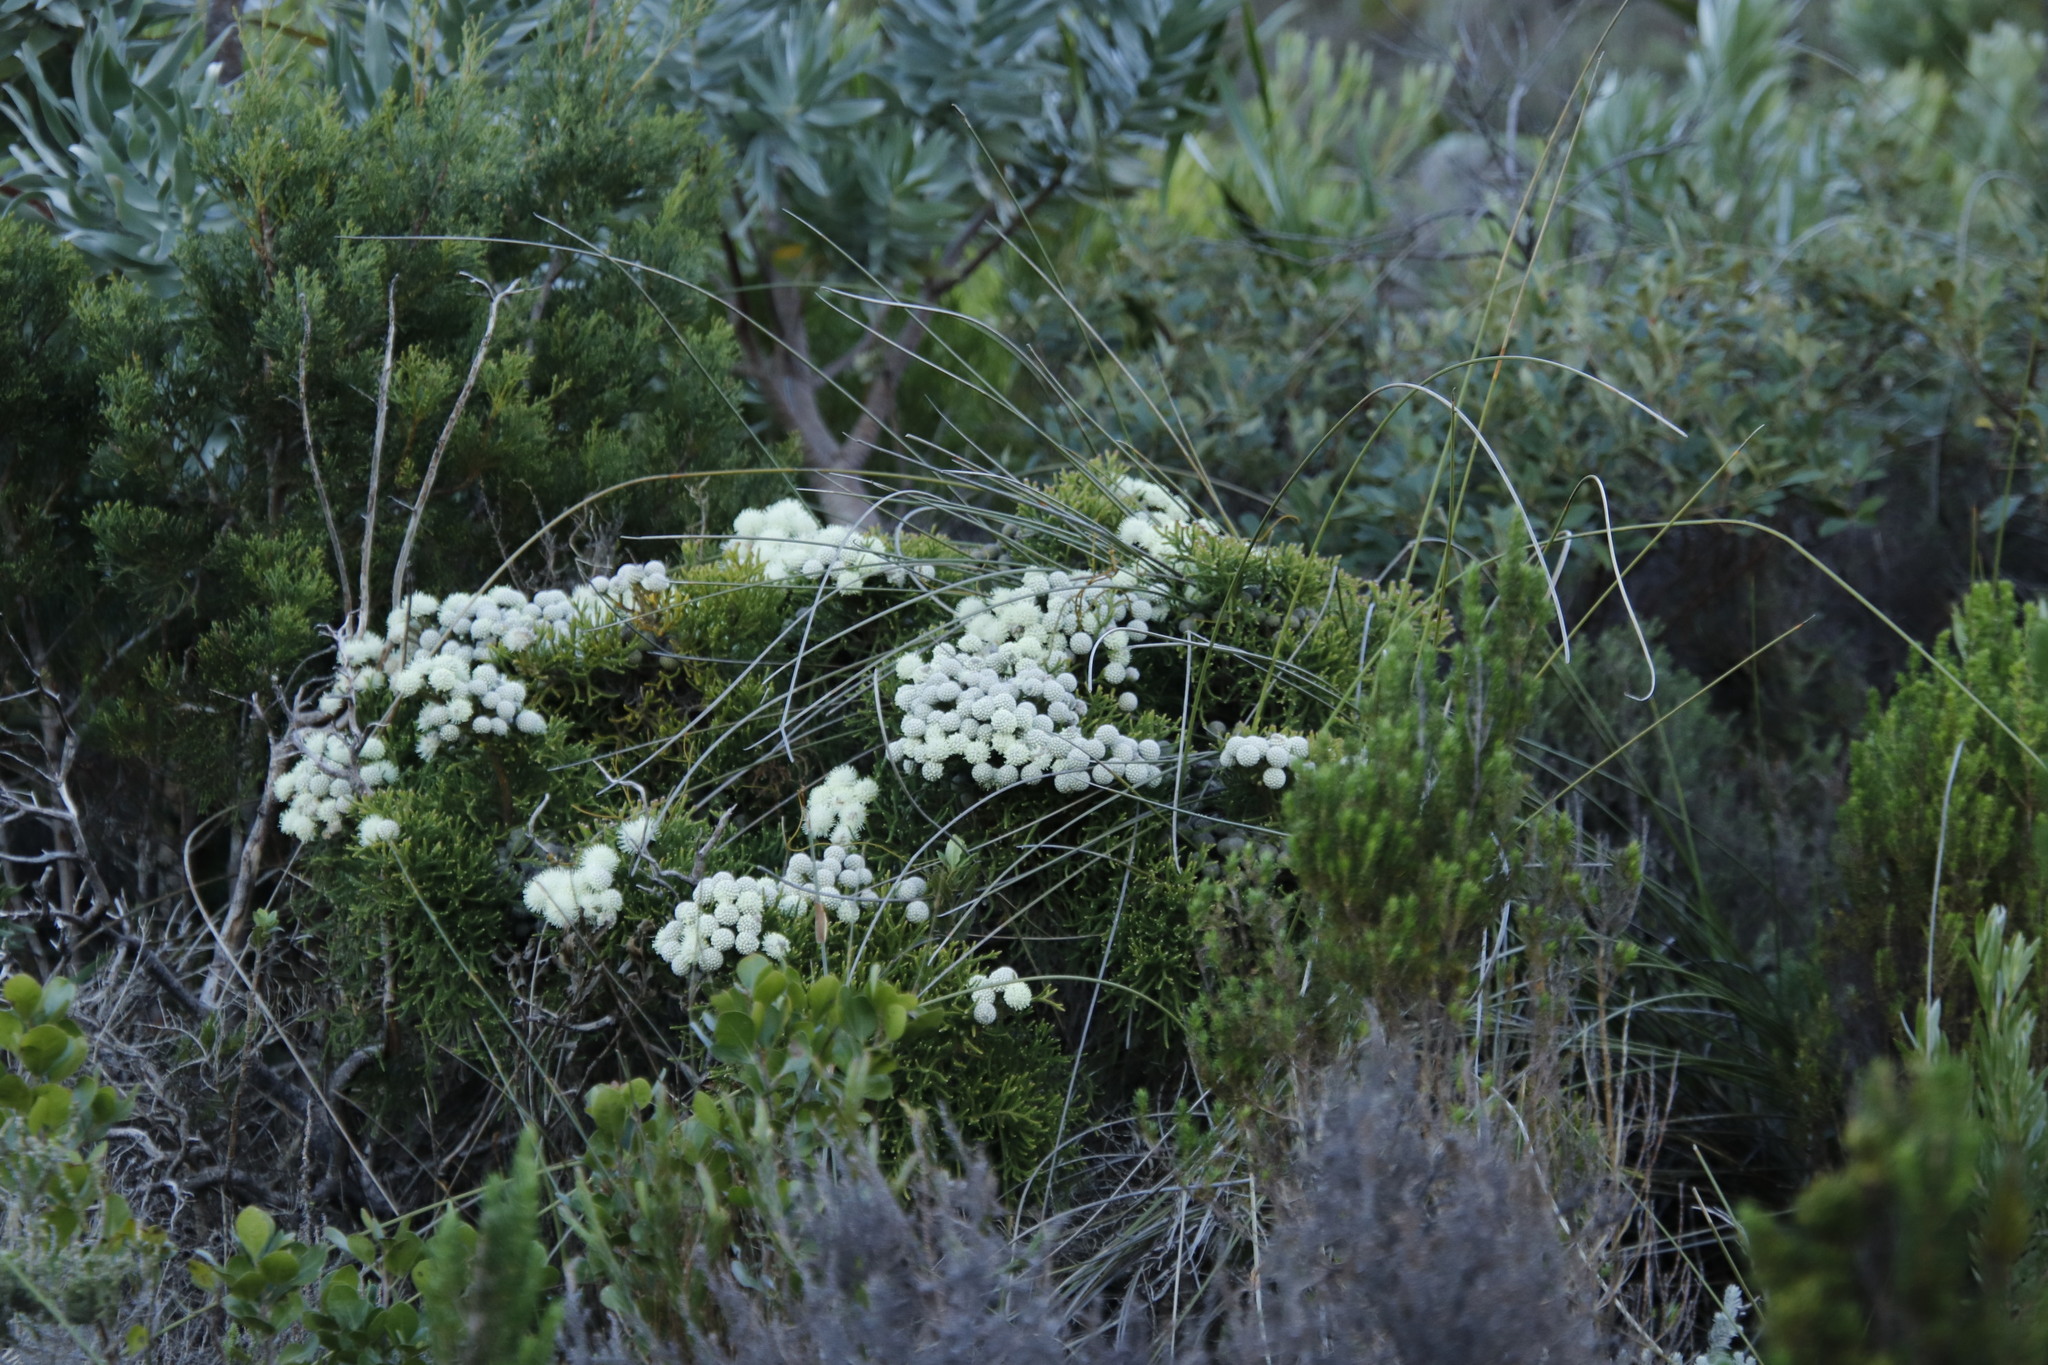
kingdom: Plantae
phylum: Tracheophyta
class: Magnoliopsida
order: Bruniales
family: Bruniaceae
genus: Brunia
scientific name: Brunia noduliflora
